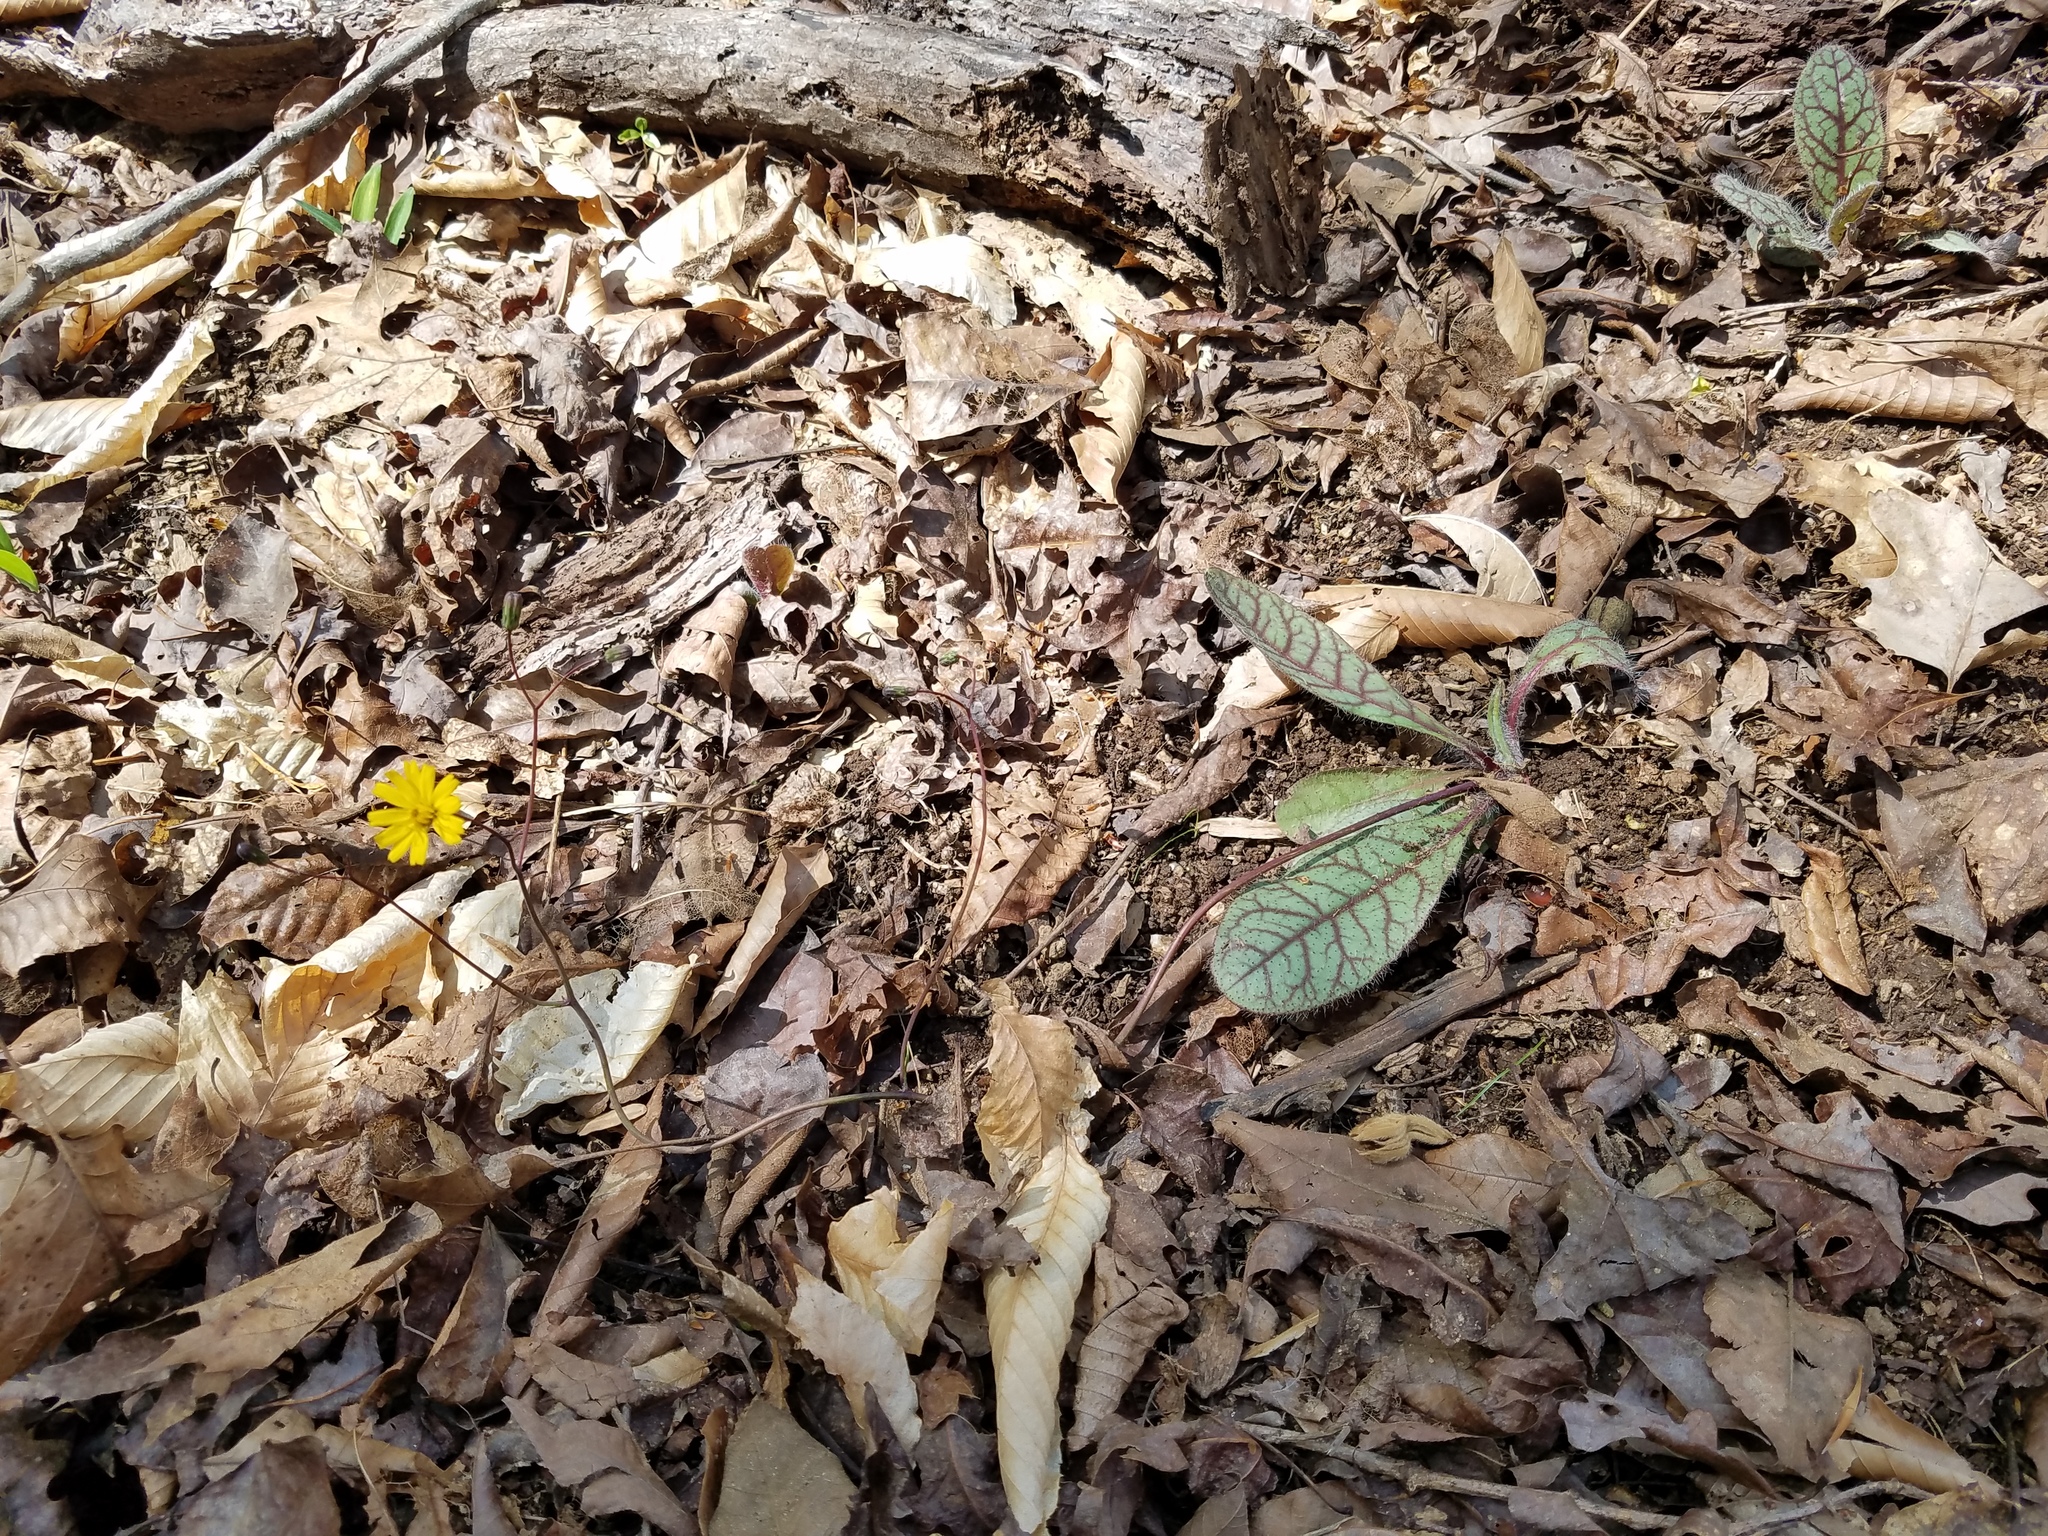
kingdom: Plantae
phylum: Tracheophyta
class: Magnoliopsida
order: Asterales
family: Asteraceae
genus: Hieracium
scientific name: Hieracium venosum
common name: Rattlesnake hawkweed
